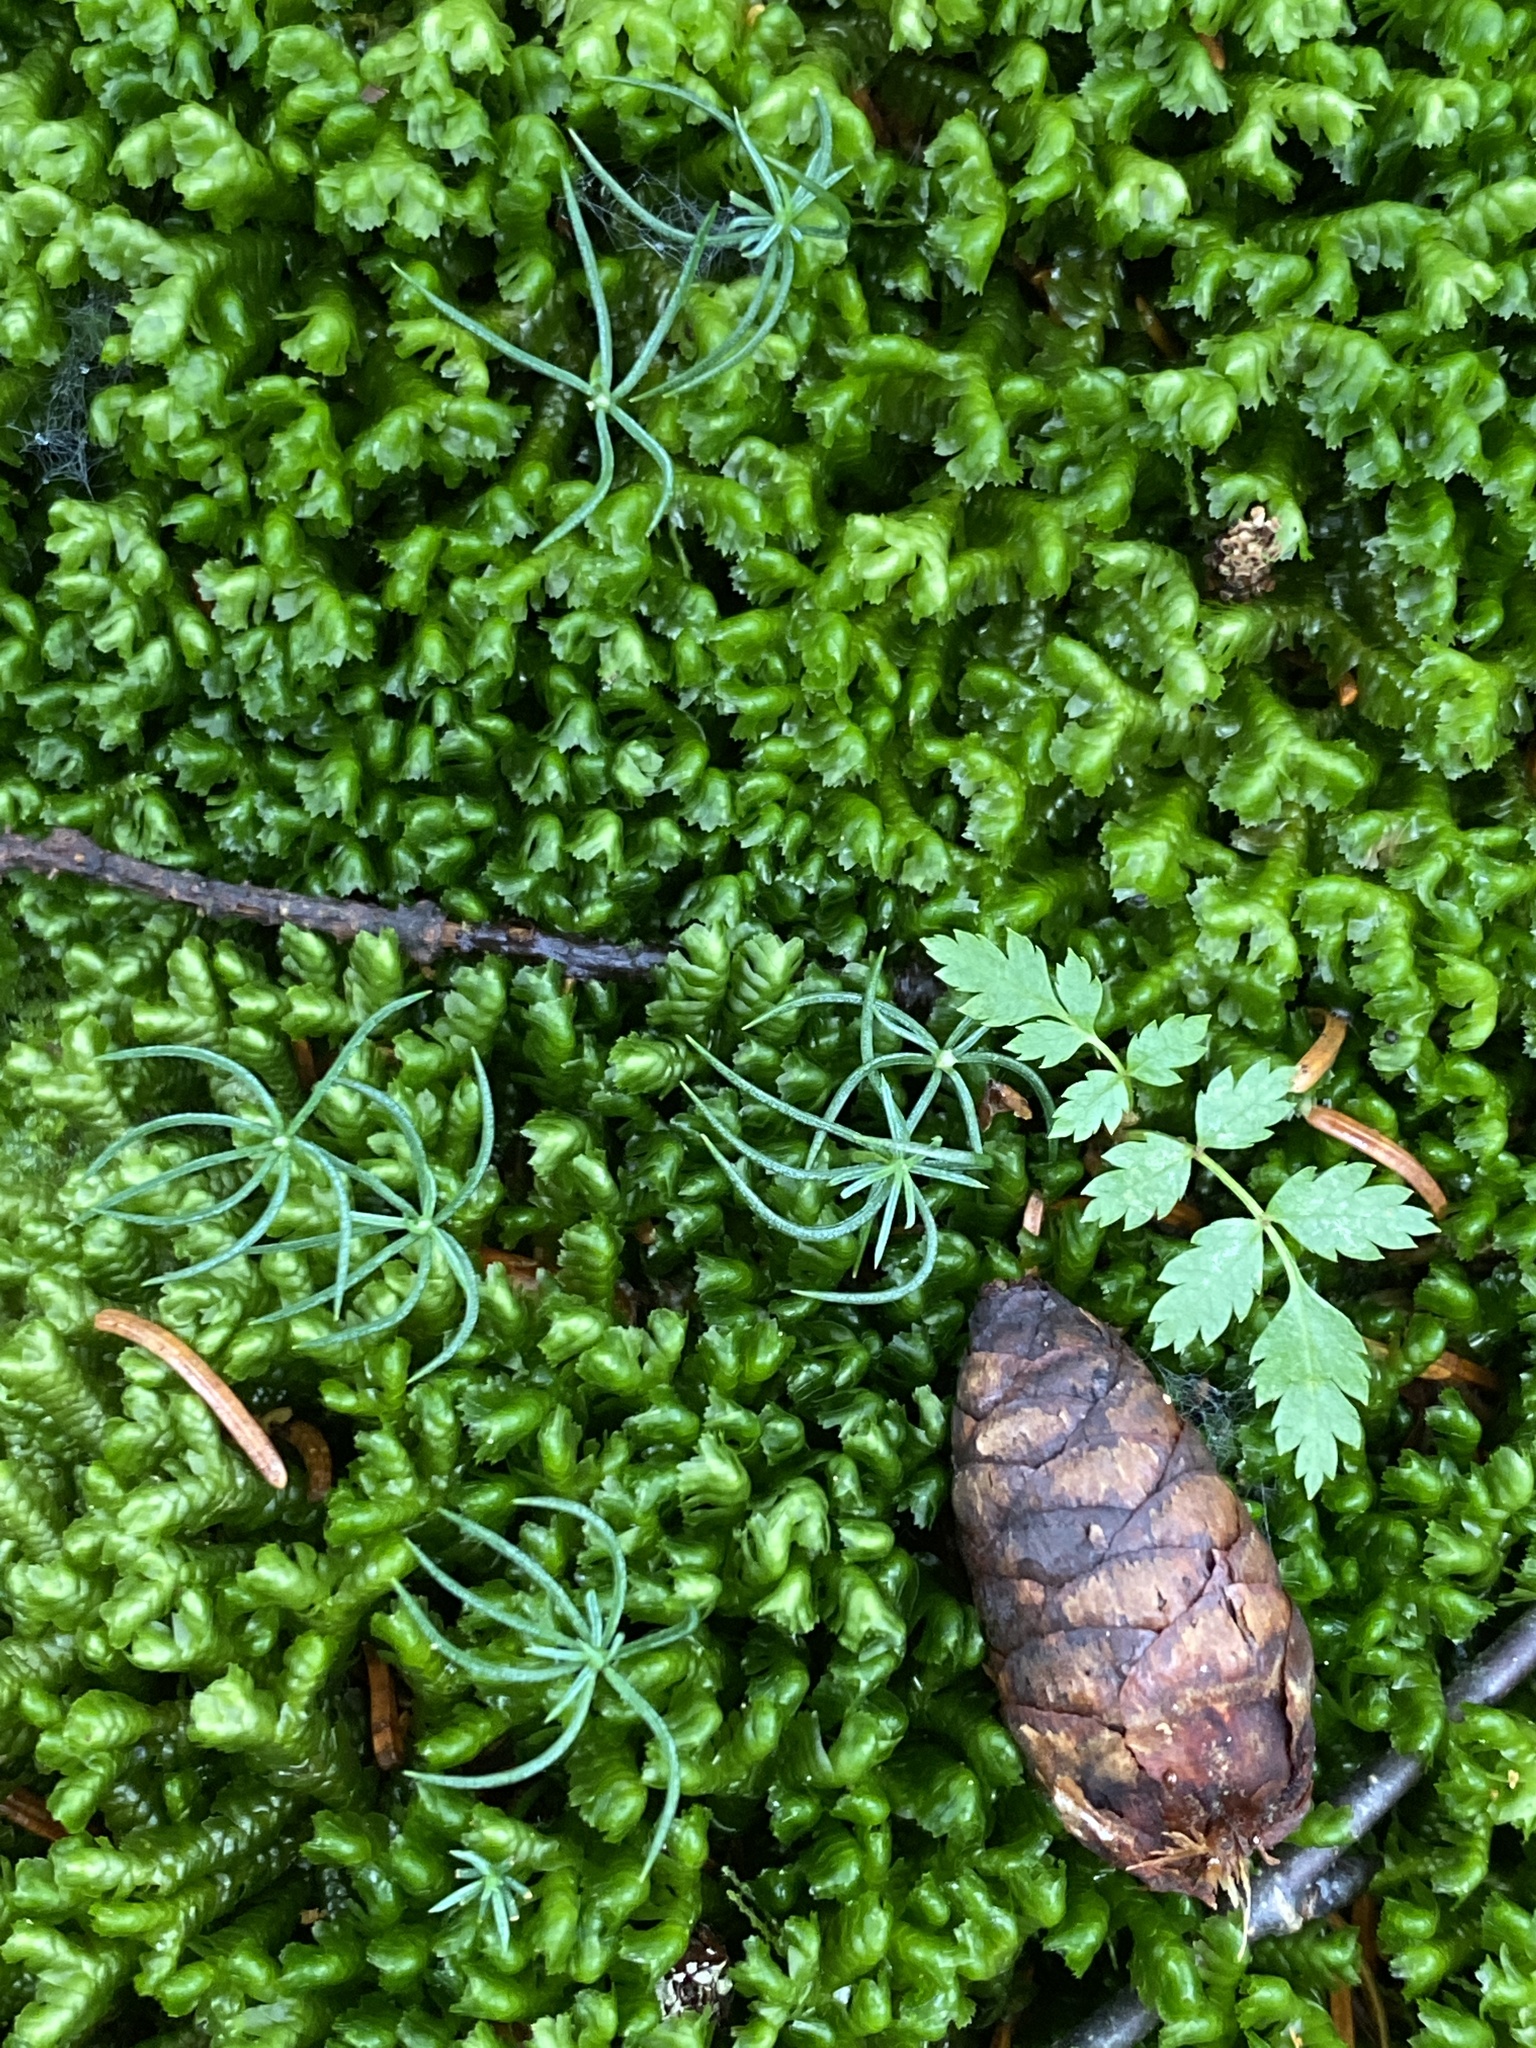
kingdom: Plantae
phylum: Tracheophyta
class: Pinopsida
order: Pinales
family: Pinaceae
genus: Picea
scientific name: Picea rubens
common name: Red spruce
